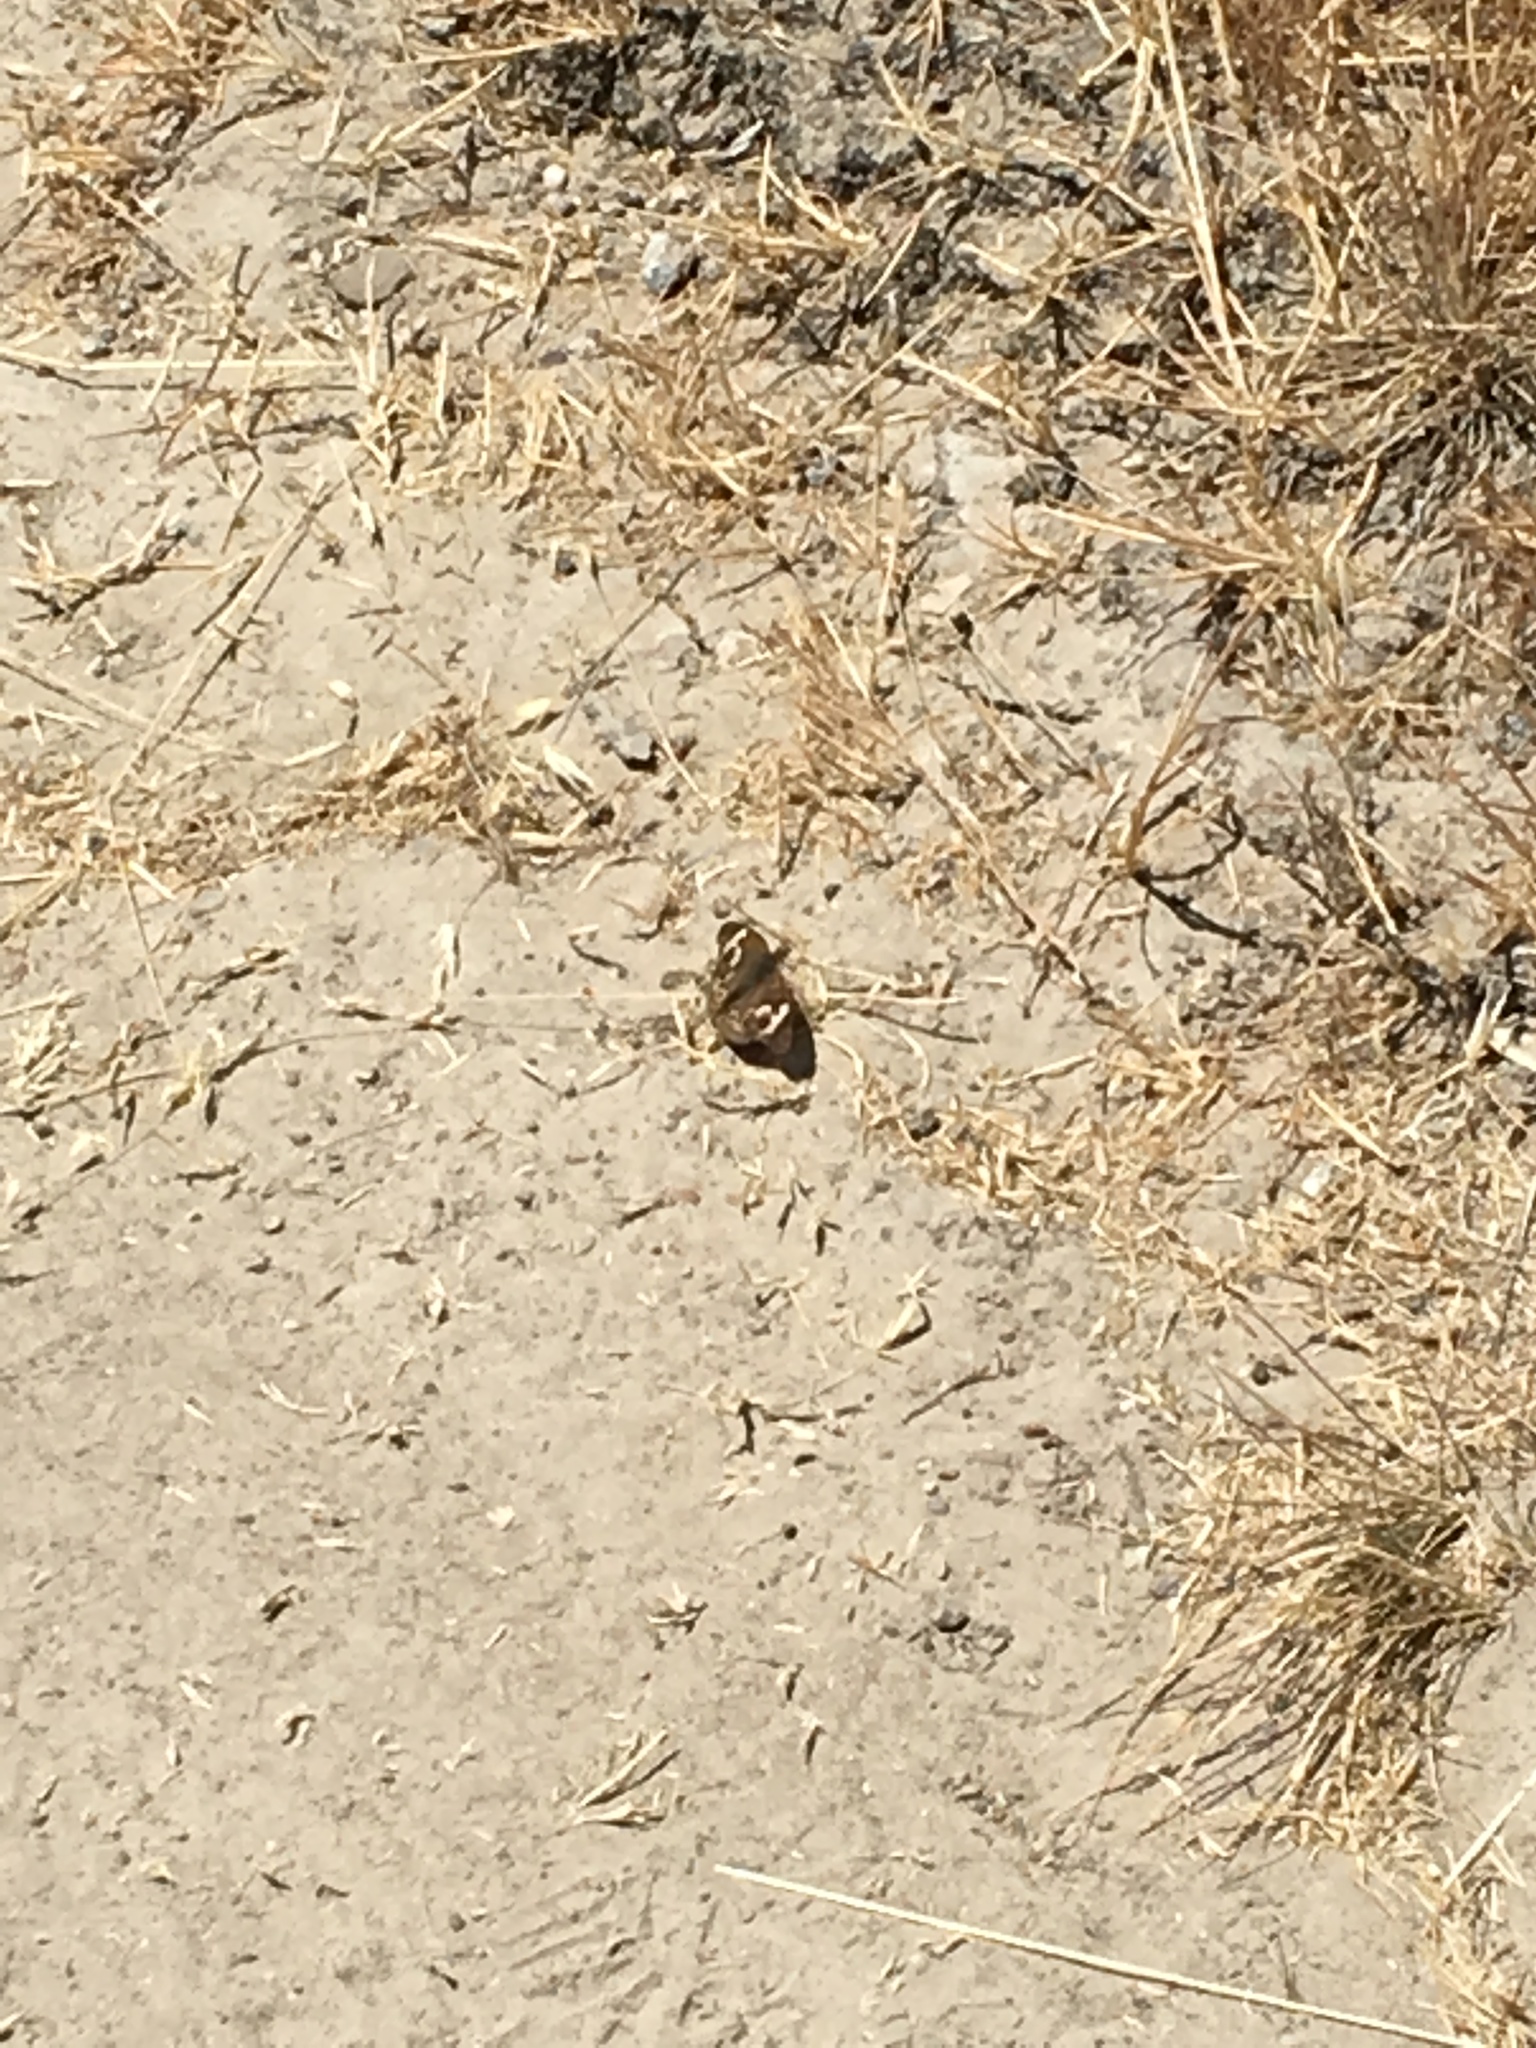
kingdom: Animalia
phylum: Arthropoda
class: Insecta
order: Lepidoptera
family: Nymphalidae
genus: Junonia
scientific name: Junonia grisea
